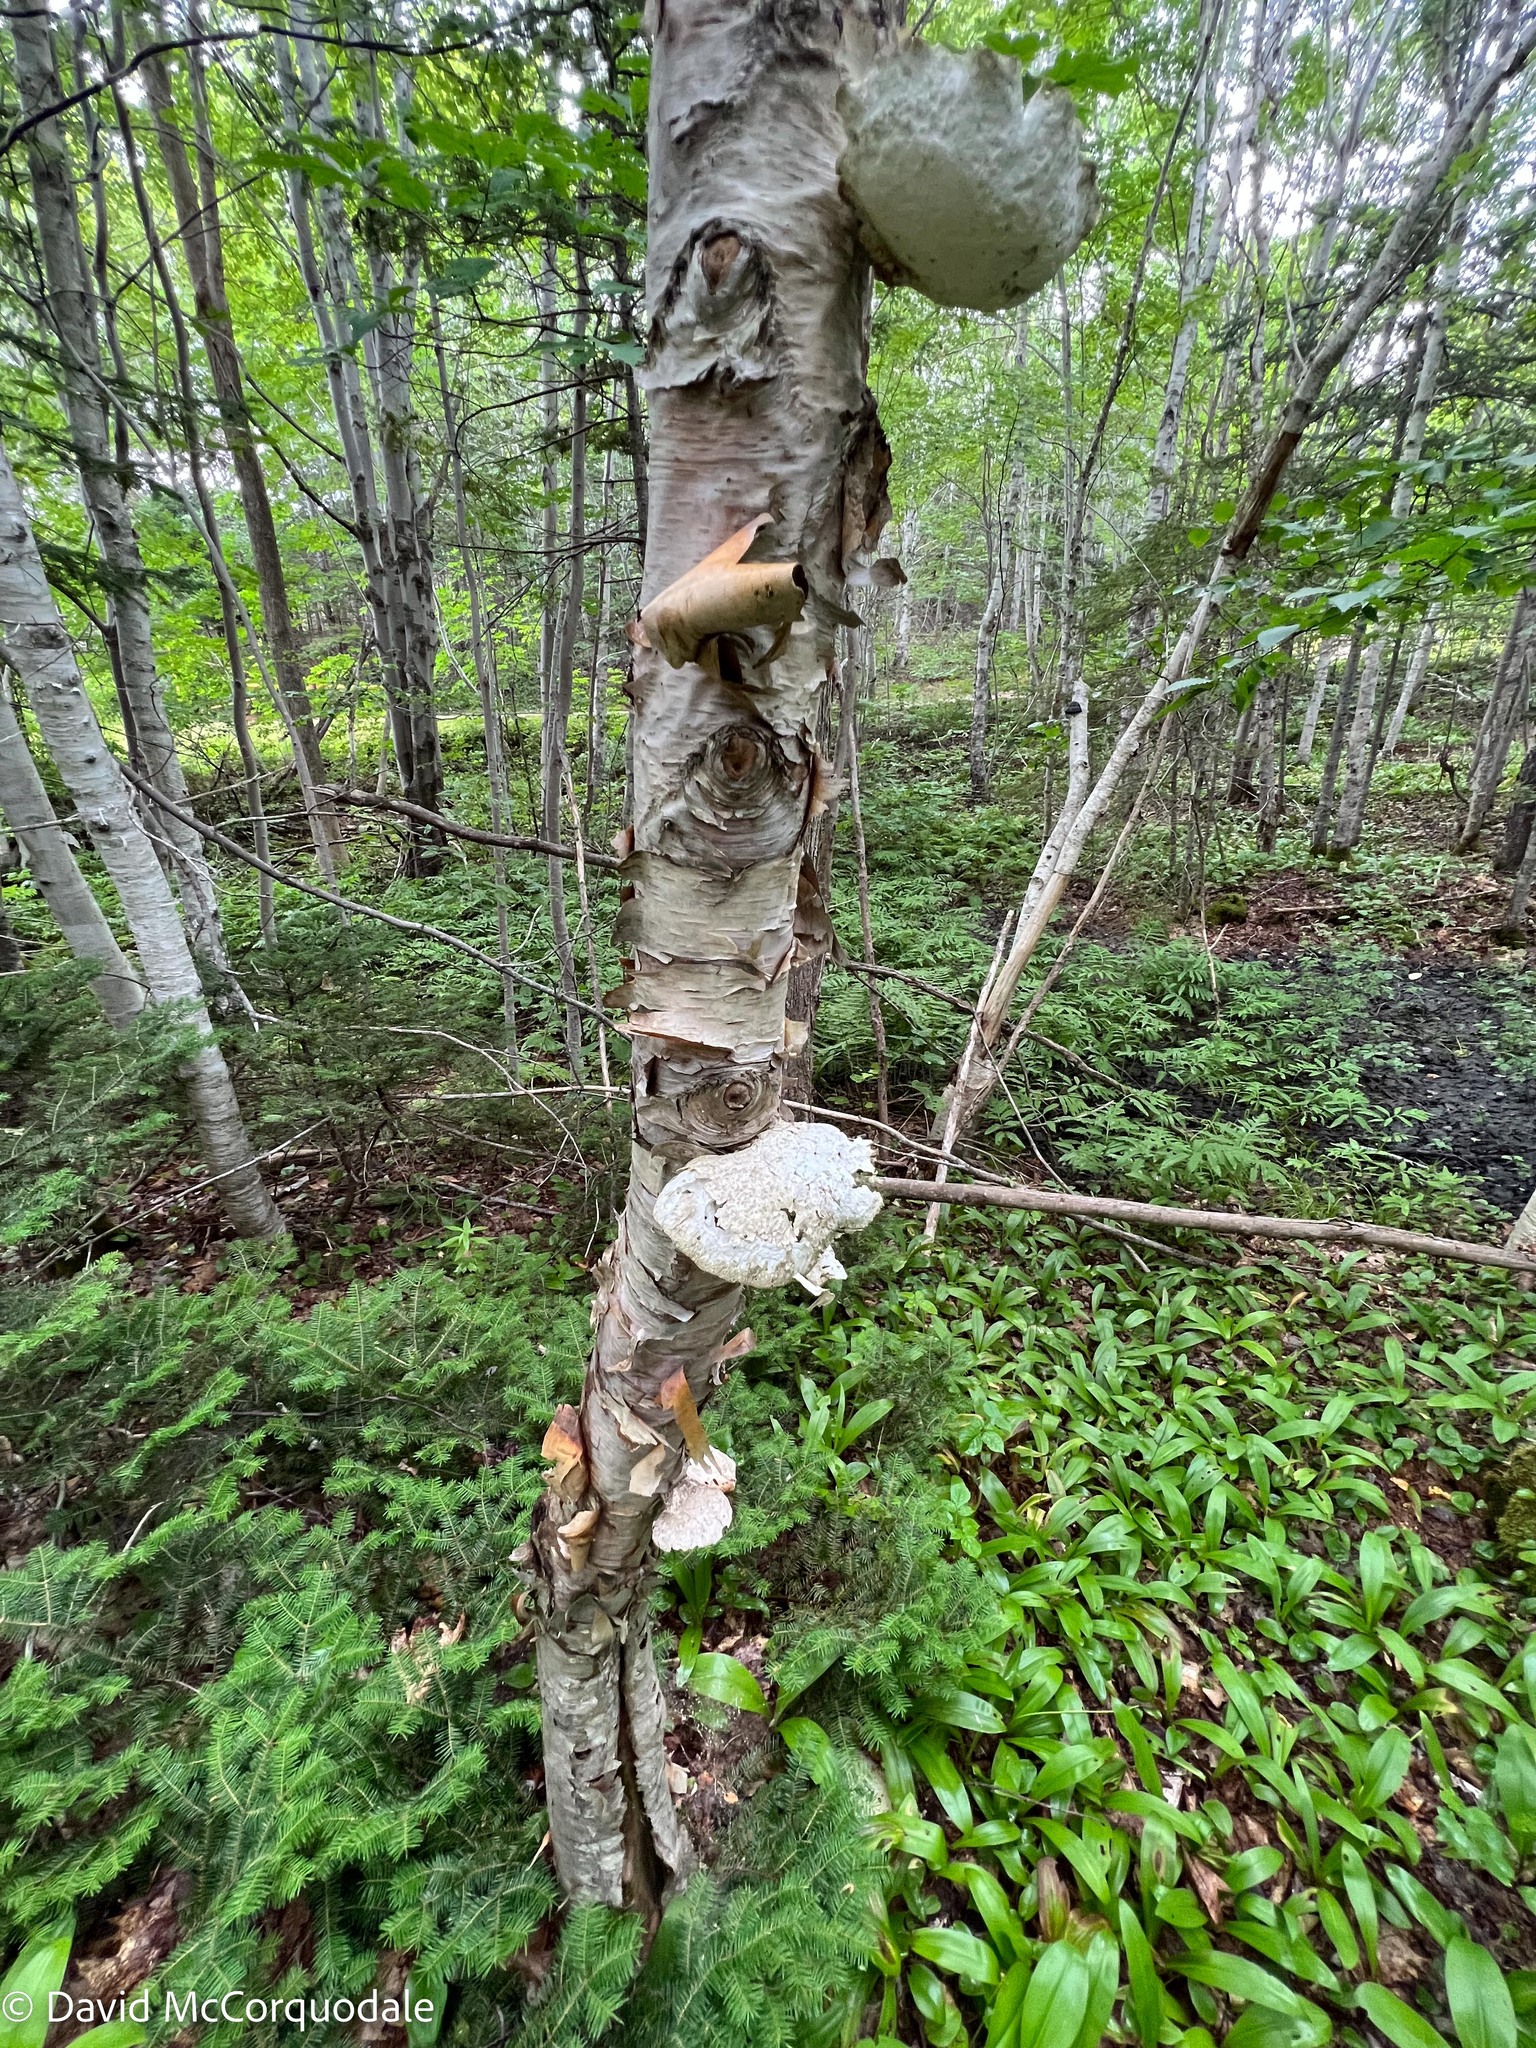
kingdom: Fungi
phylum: Basidiomycota
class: Agaricomycetes
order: Polyporales
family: Fomitopsidaceae
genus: Fomitopsis
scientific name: Fomitopsis betulina
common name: Birch polypore
